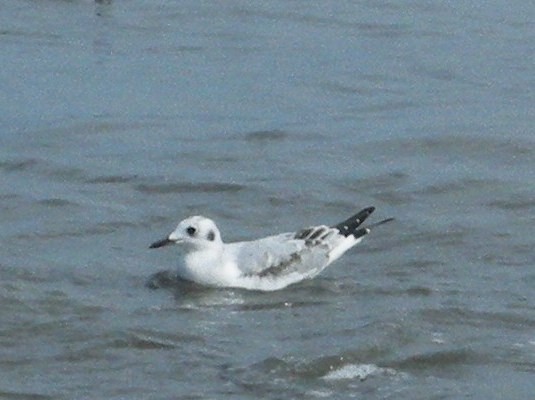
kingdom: Animalia
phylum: Chordata
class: Aves
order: Charadriiformes
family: Laridae
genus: Chroicocephalus
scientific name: Chroicocephalus philadelphia
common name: Bonaparte's gull
